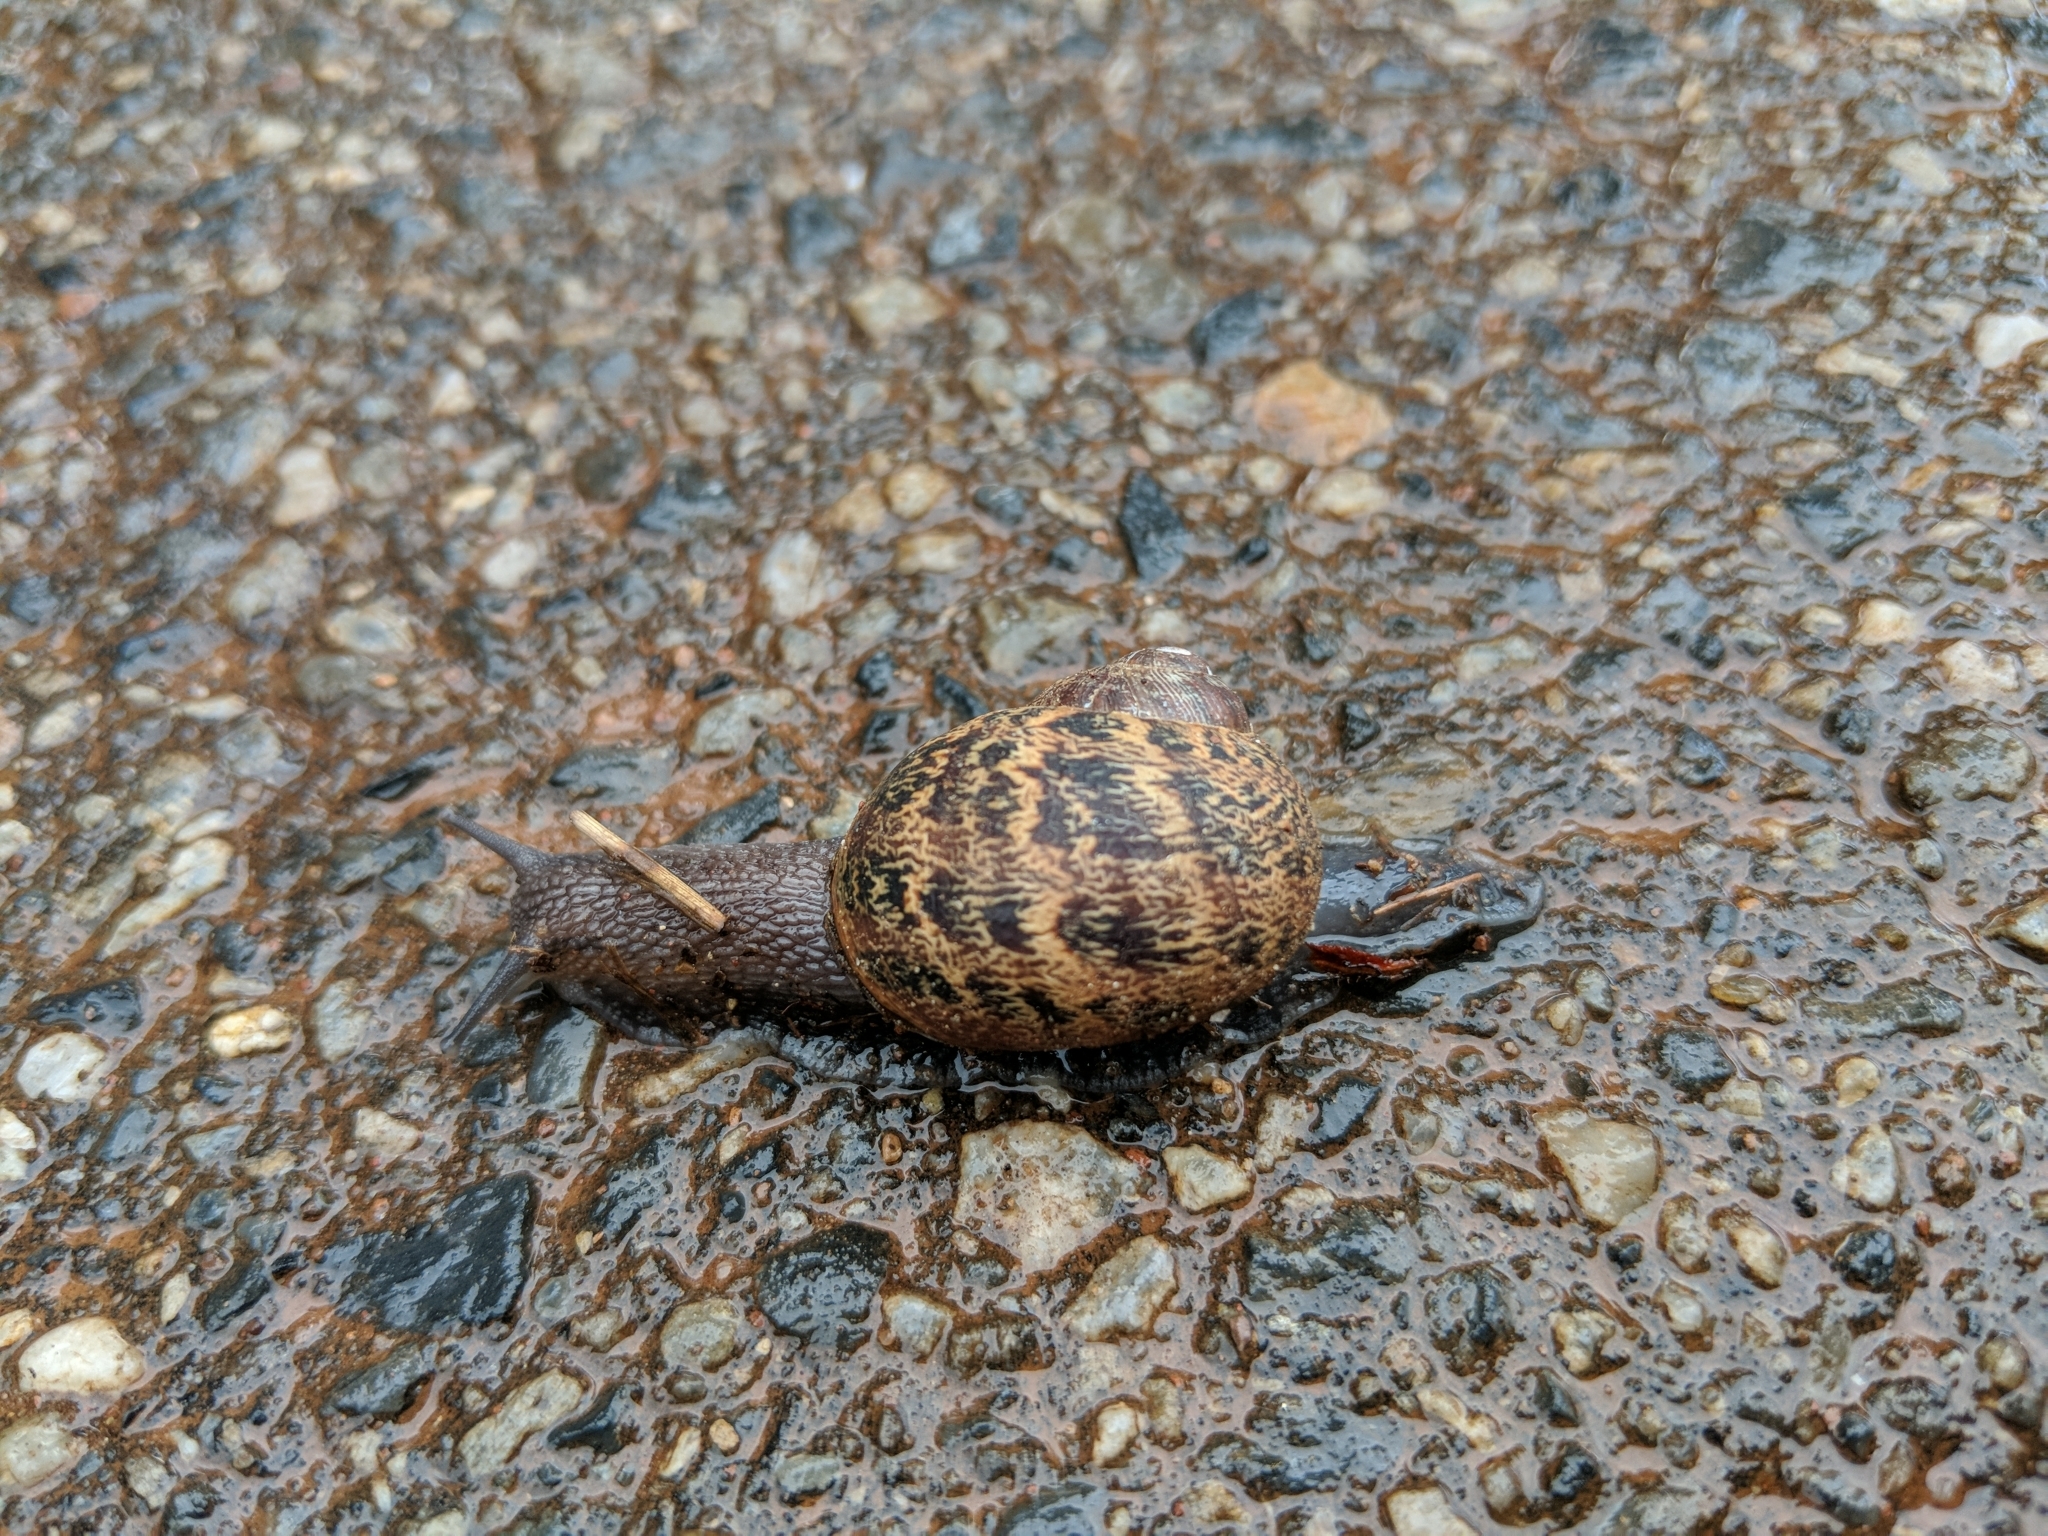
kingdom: Animalia
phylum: Mollusca
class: Gastropoda
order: Stylommatophora
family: Helicidae
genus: Cornu
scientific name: Cornu aspersum
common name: Brown garden snail
